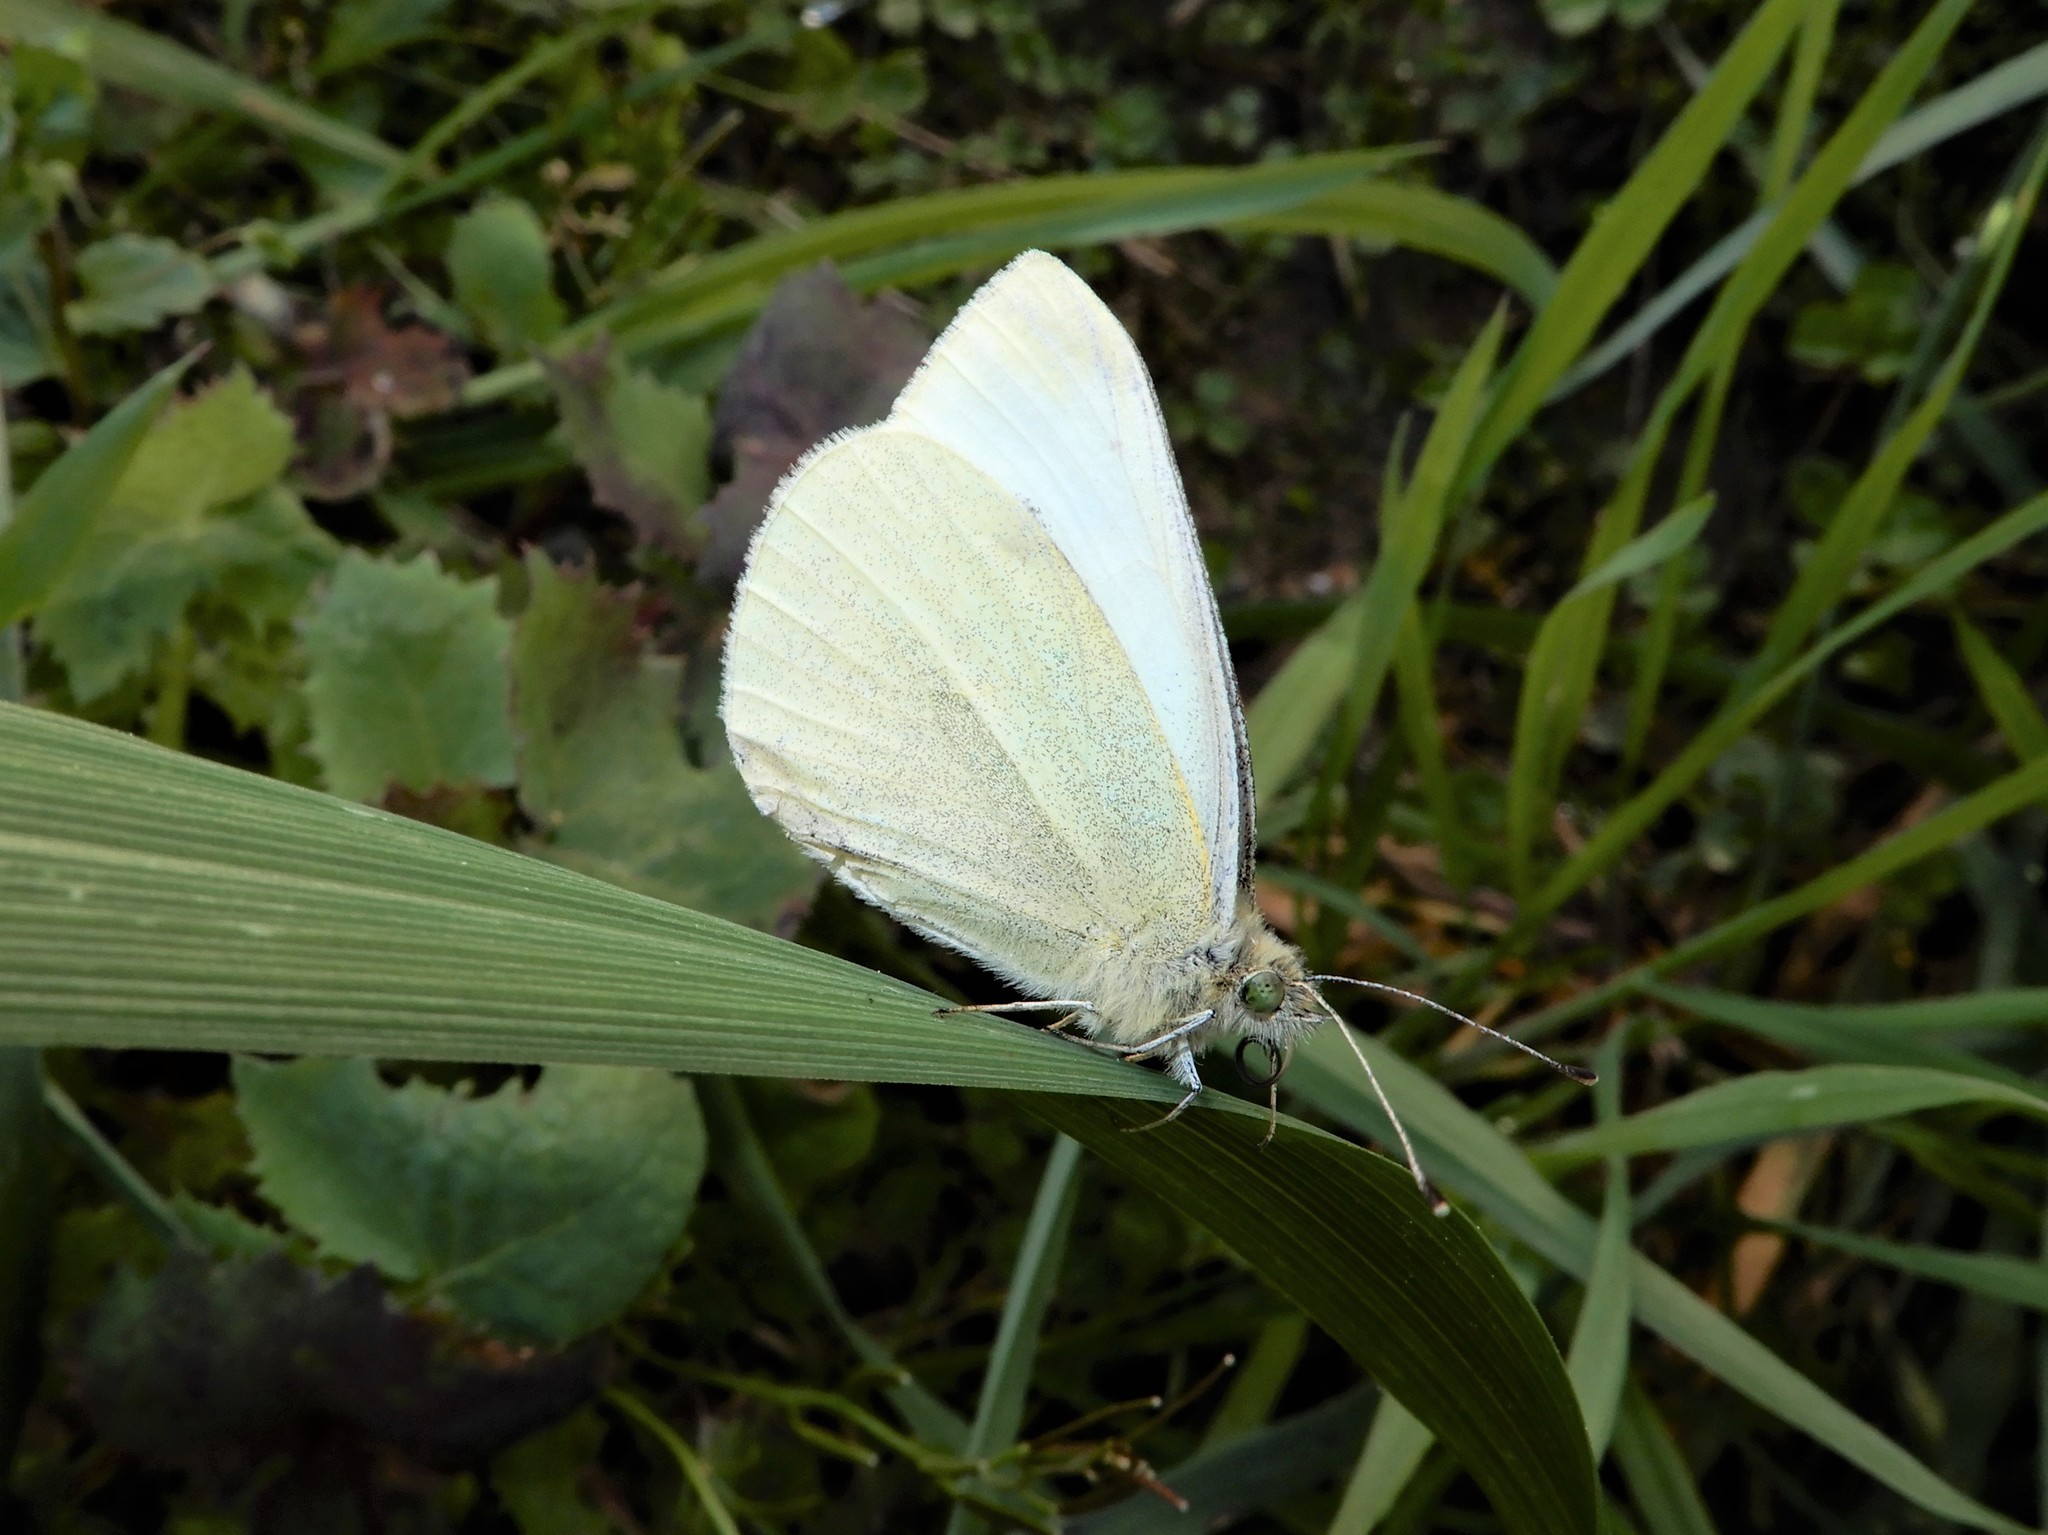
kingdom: Animalia
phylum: Arthropoda
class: Insecta
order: Lepidoptera
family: Pieridae
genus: Pieris
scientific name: Pieris rapae
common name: Small white
